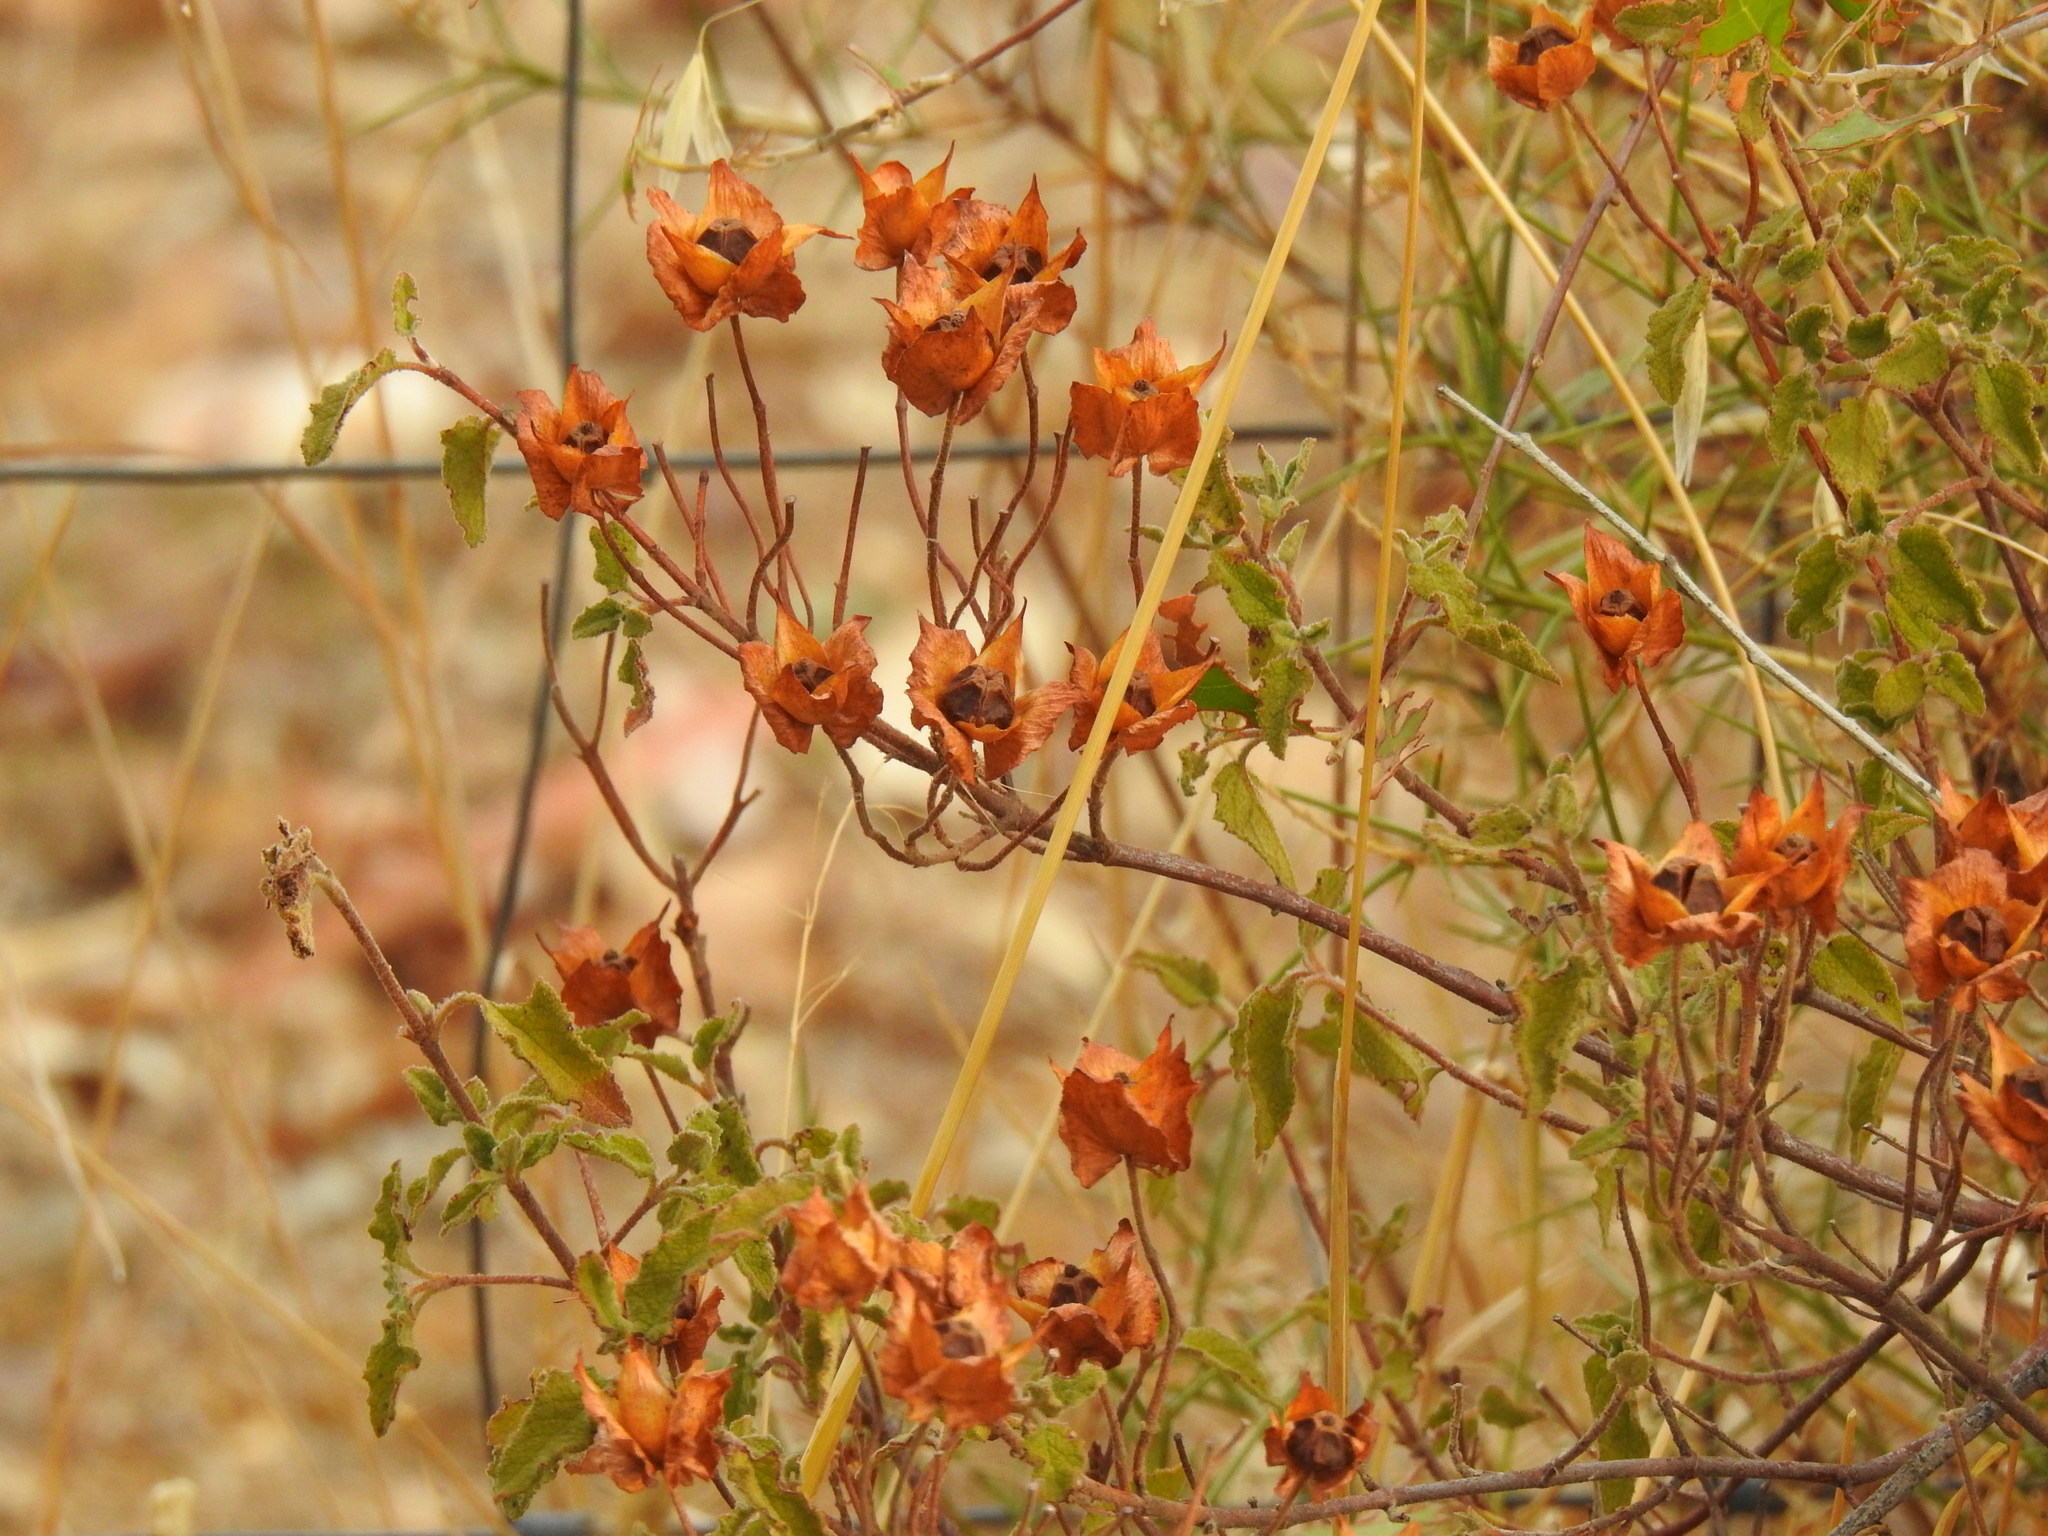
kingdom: Plantae
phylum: Tracheophyta
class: Magnoliopsida
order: Malvales
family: Cistaceae
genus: Cistus
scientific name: Cistus salviifolius
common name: Salvia cistus
